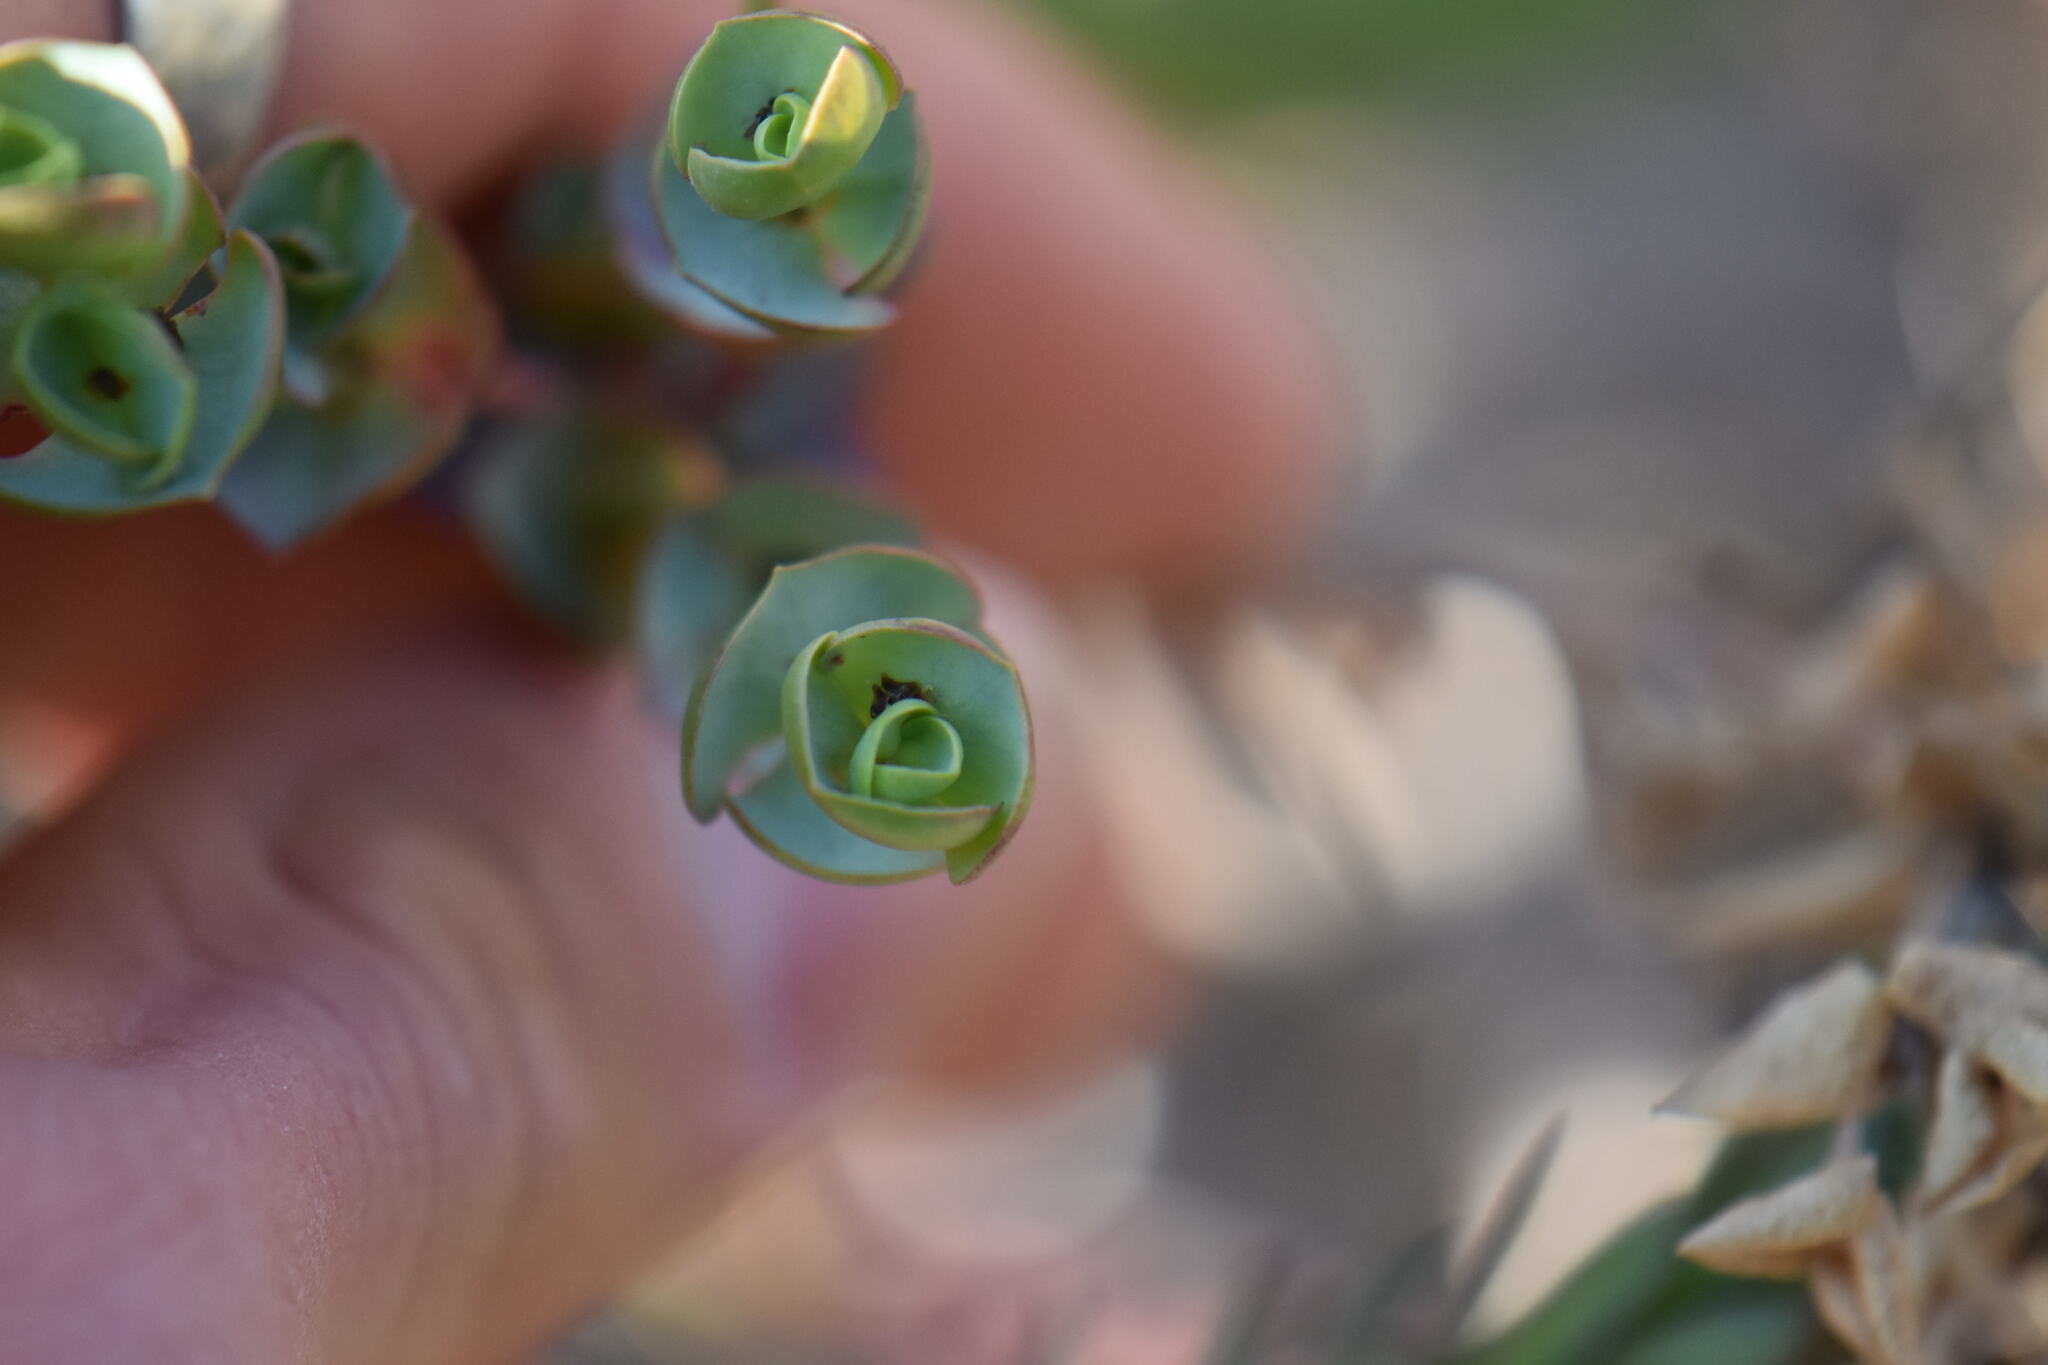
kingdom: Plantae
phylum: Tracheophyta
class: Magnoliopsida
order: Malpighiales
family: Euphorbiaceae
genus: Euphorbia
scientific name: Euphorbia paralias
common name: Sea spurge
